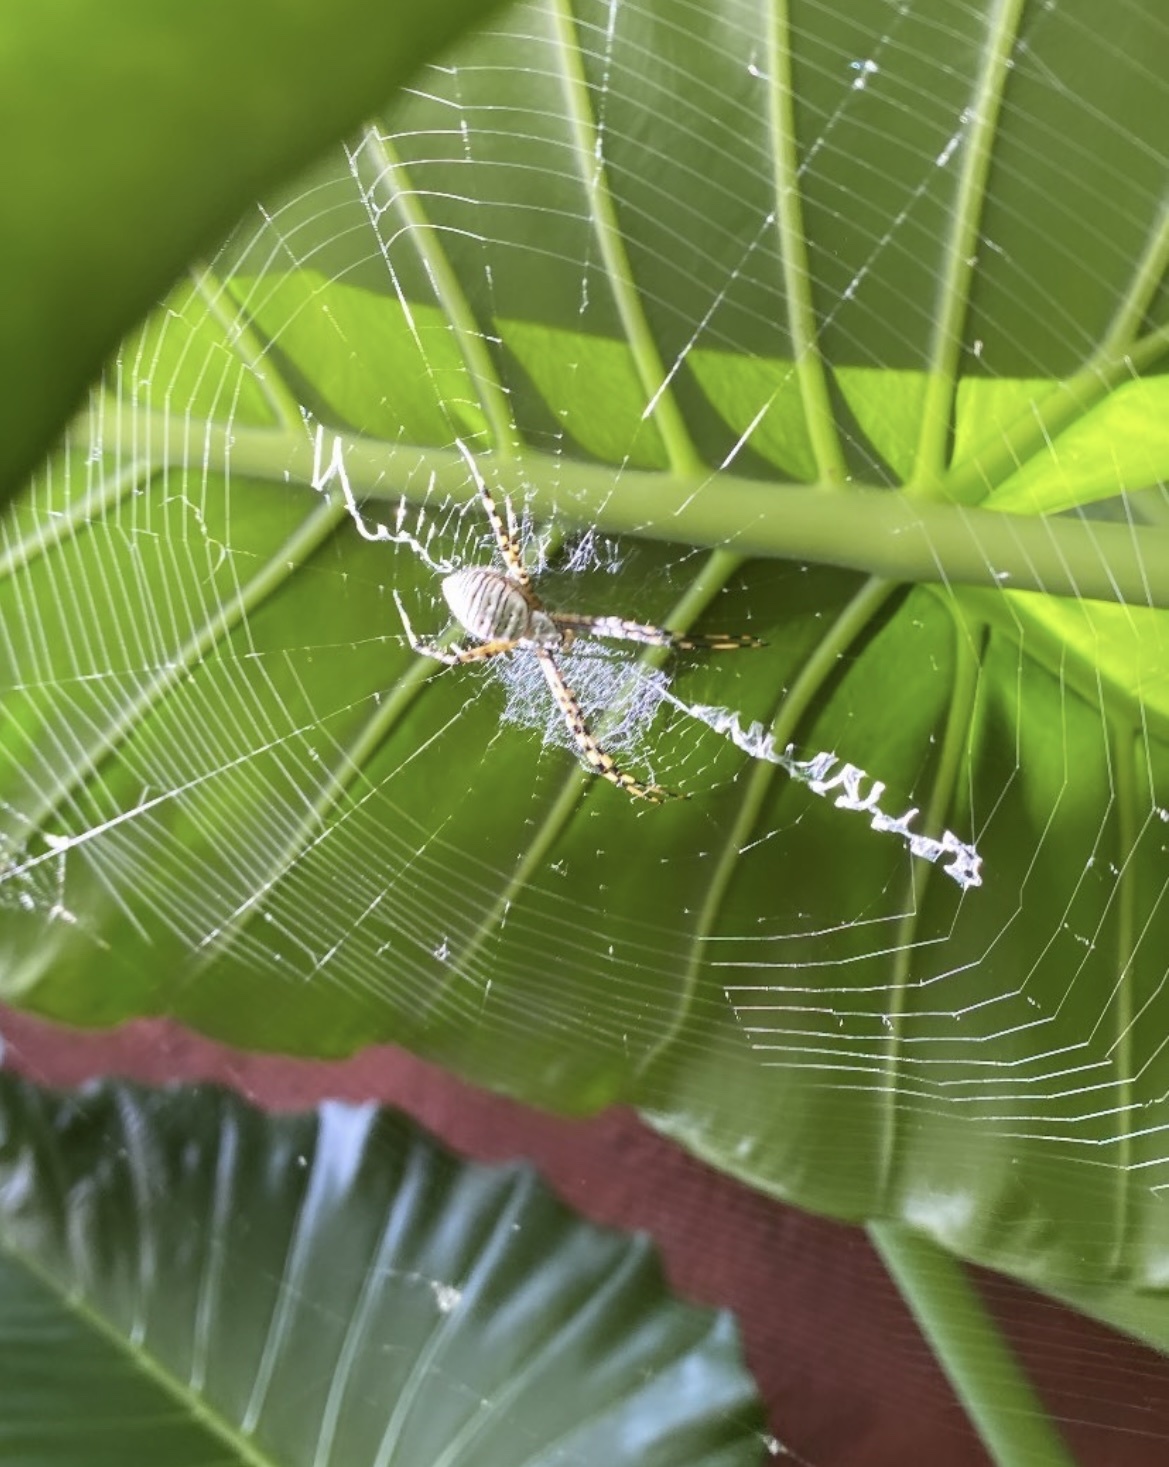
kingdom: Animalia
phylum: Arthropoda
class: Arachnida
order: Araneae
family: Araneidae
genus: Argiope
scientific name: Argiope trifasciata
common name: Banded garden spider
